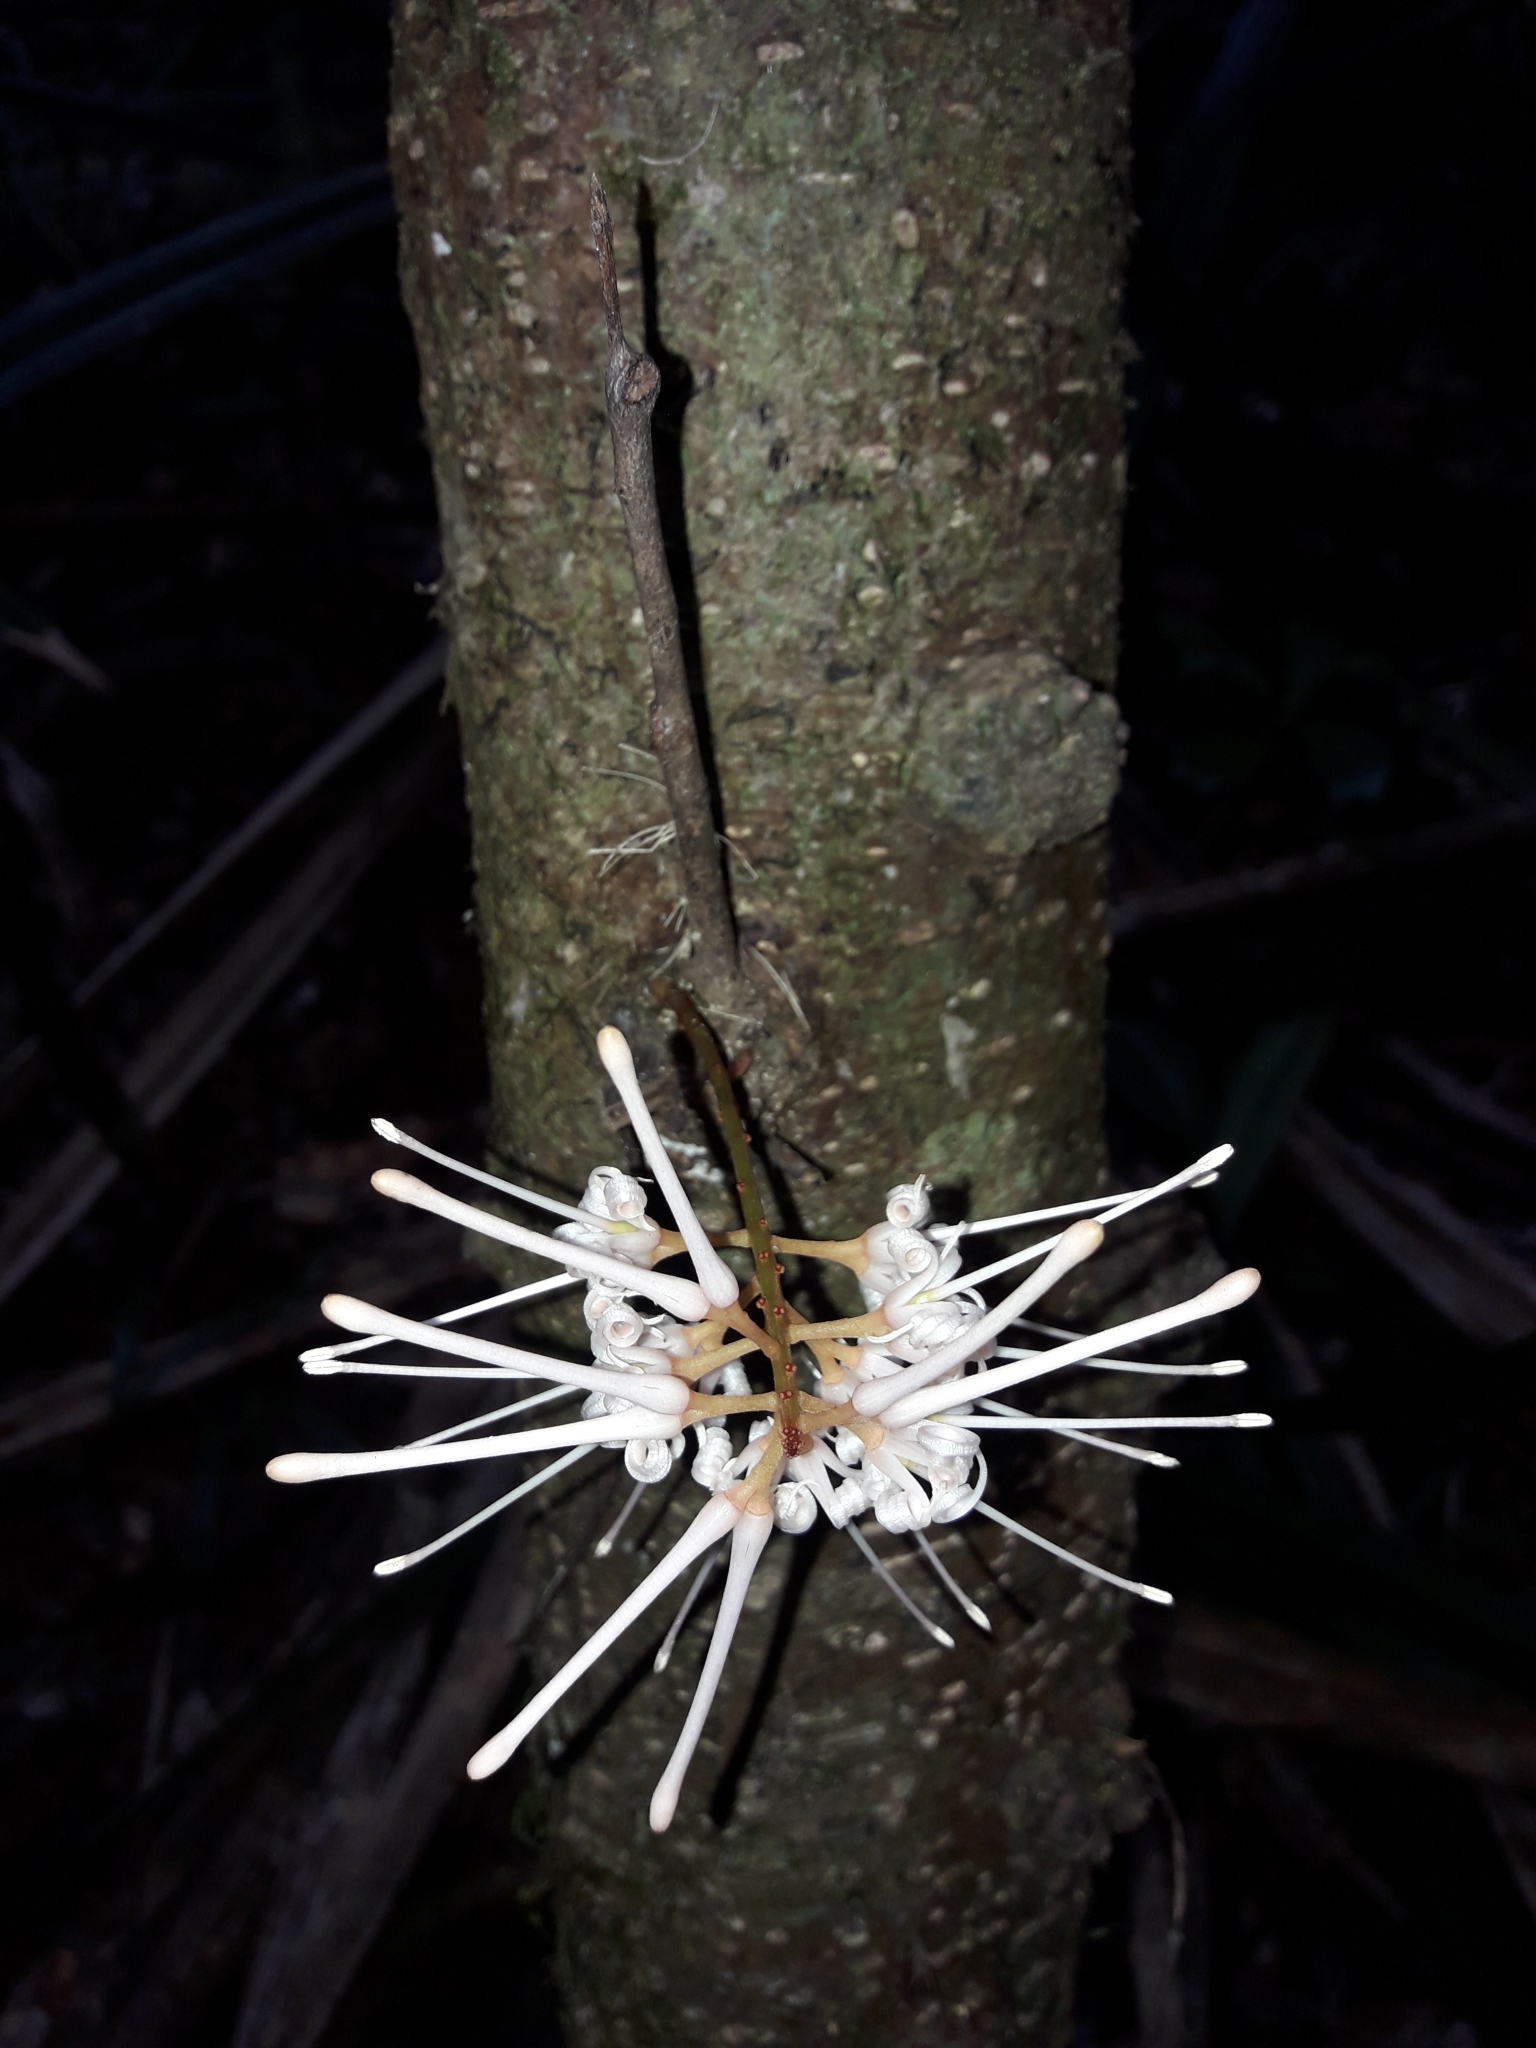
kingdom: Plantae
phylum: Tracheophyta
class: Magnoliopsida
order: Proteales
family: Proteaceae
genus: Virotia
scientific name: Virotia francii
